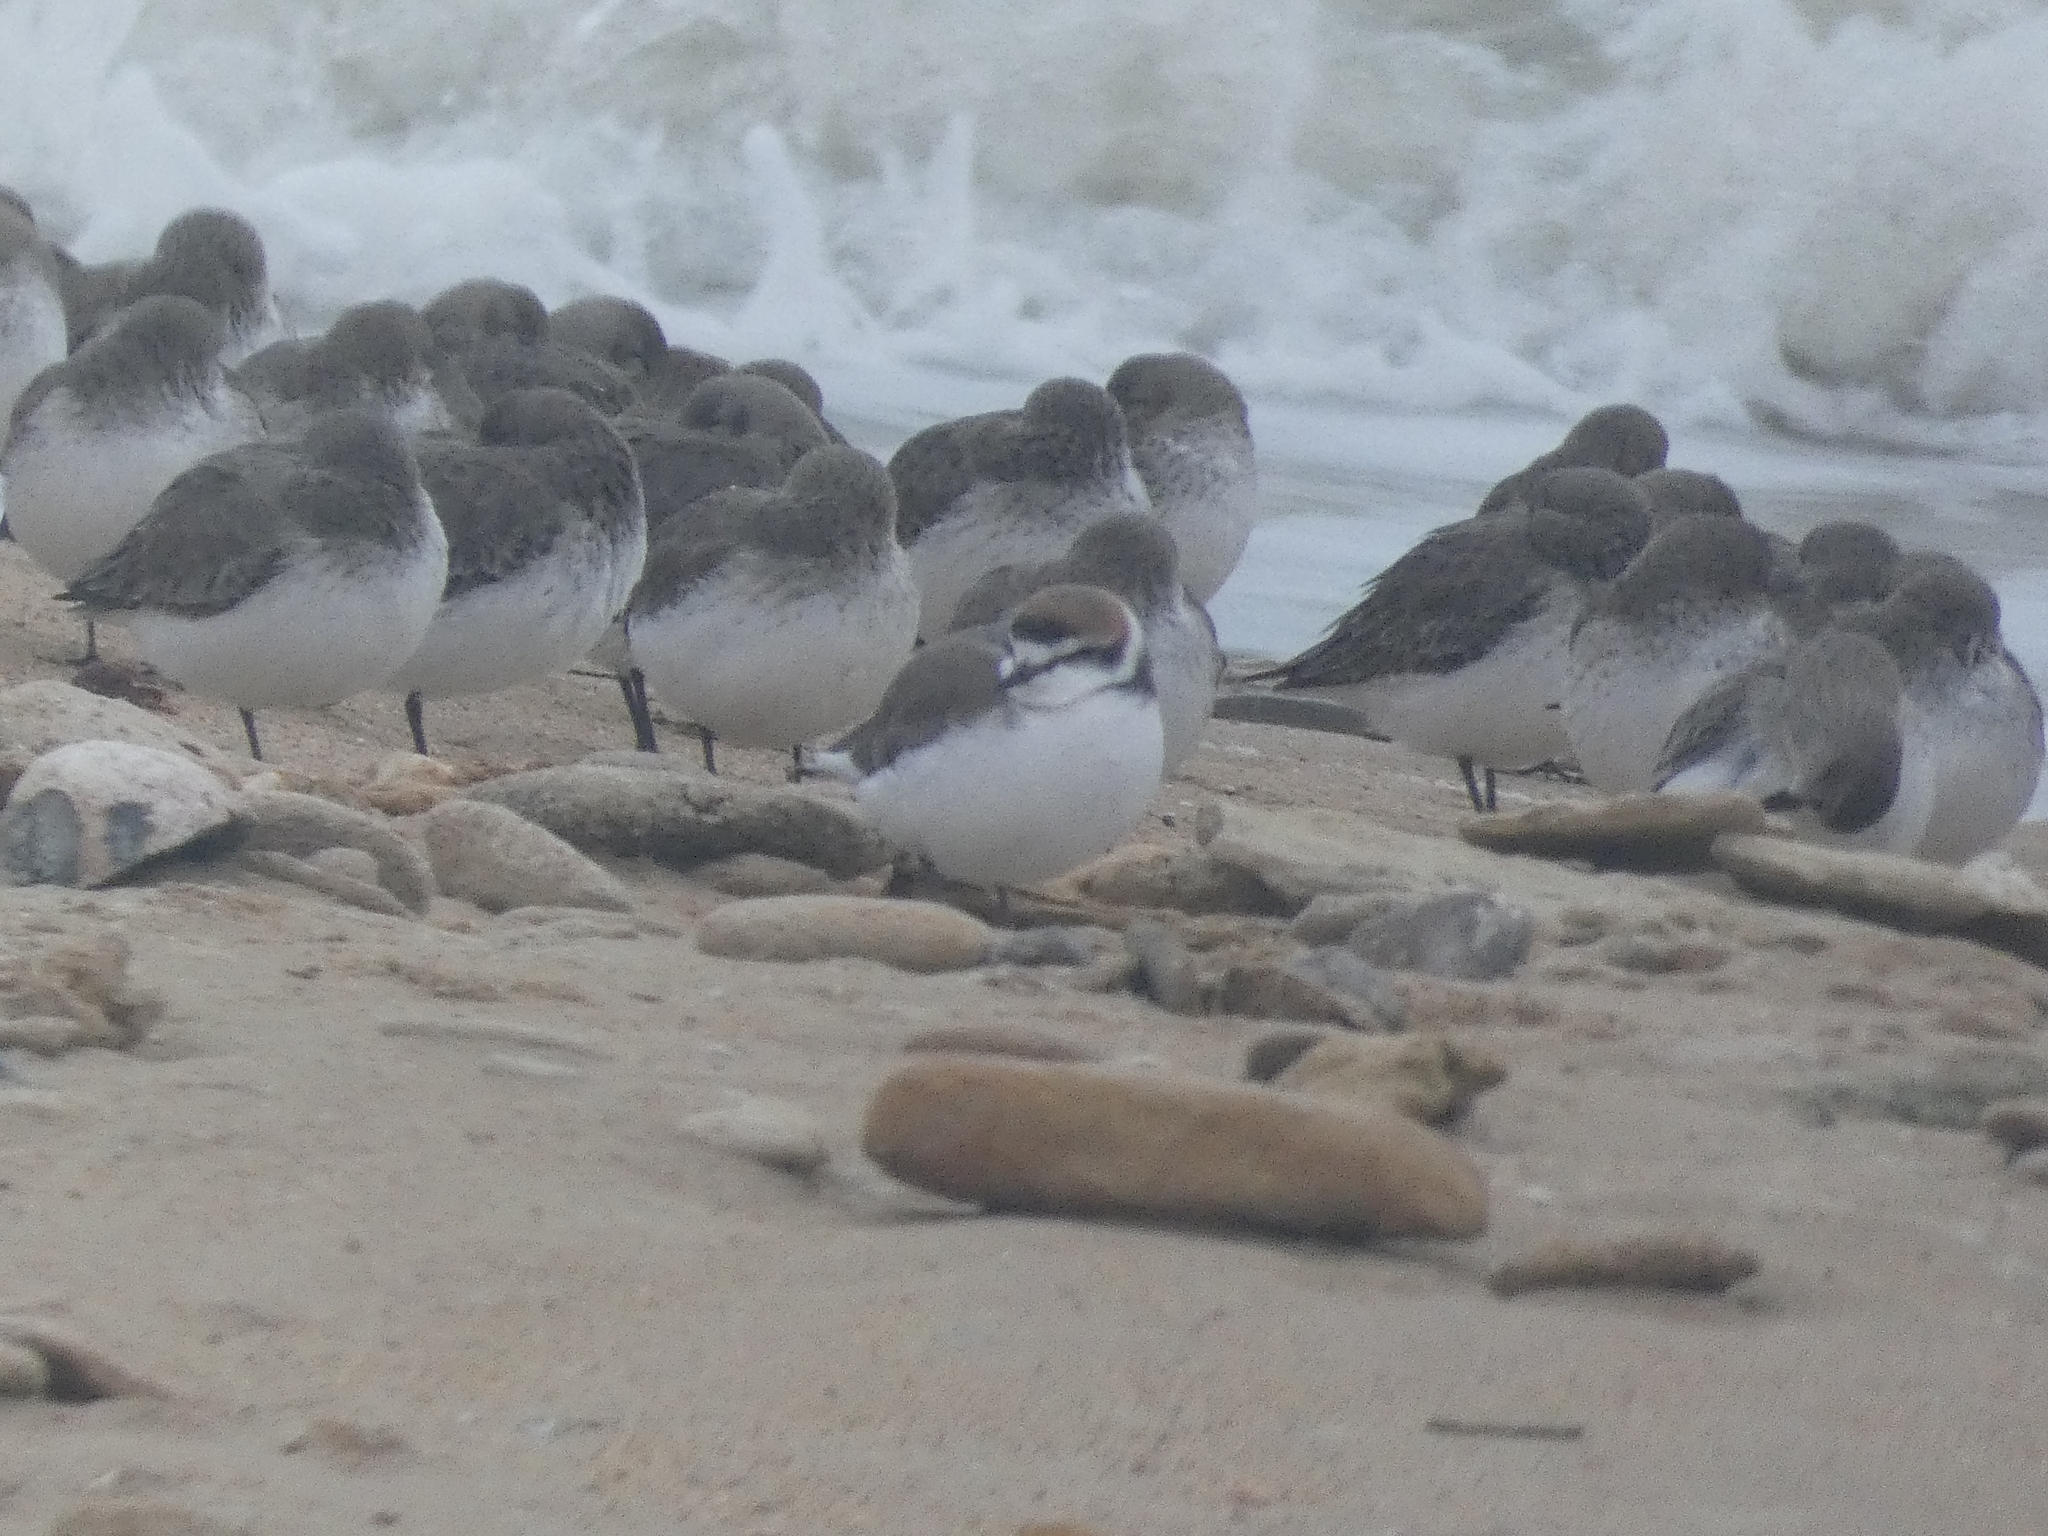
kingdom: Animalia
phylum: Chordata
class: Aves
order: Charadriiformes
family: Charadriidae
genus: Charadrius
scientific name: Charadrius alexandrinus
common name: Kentish plover
